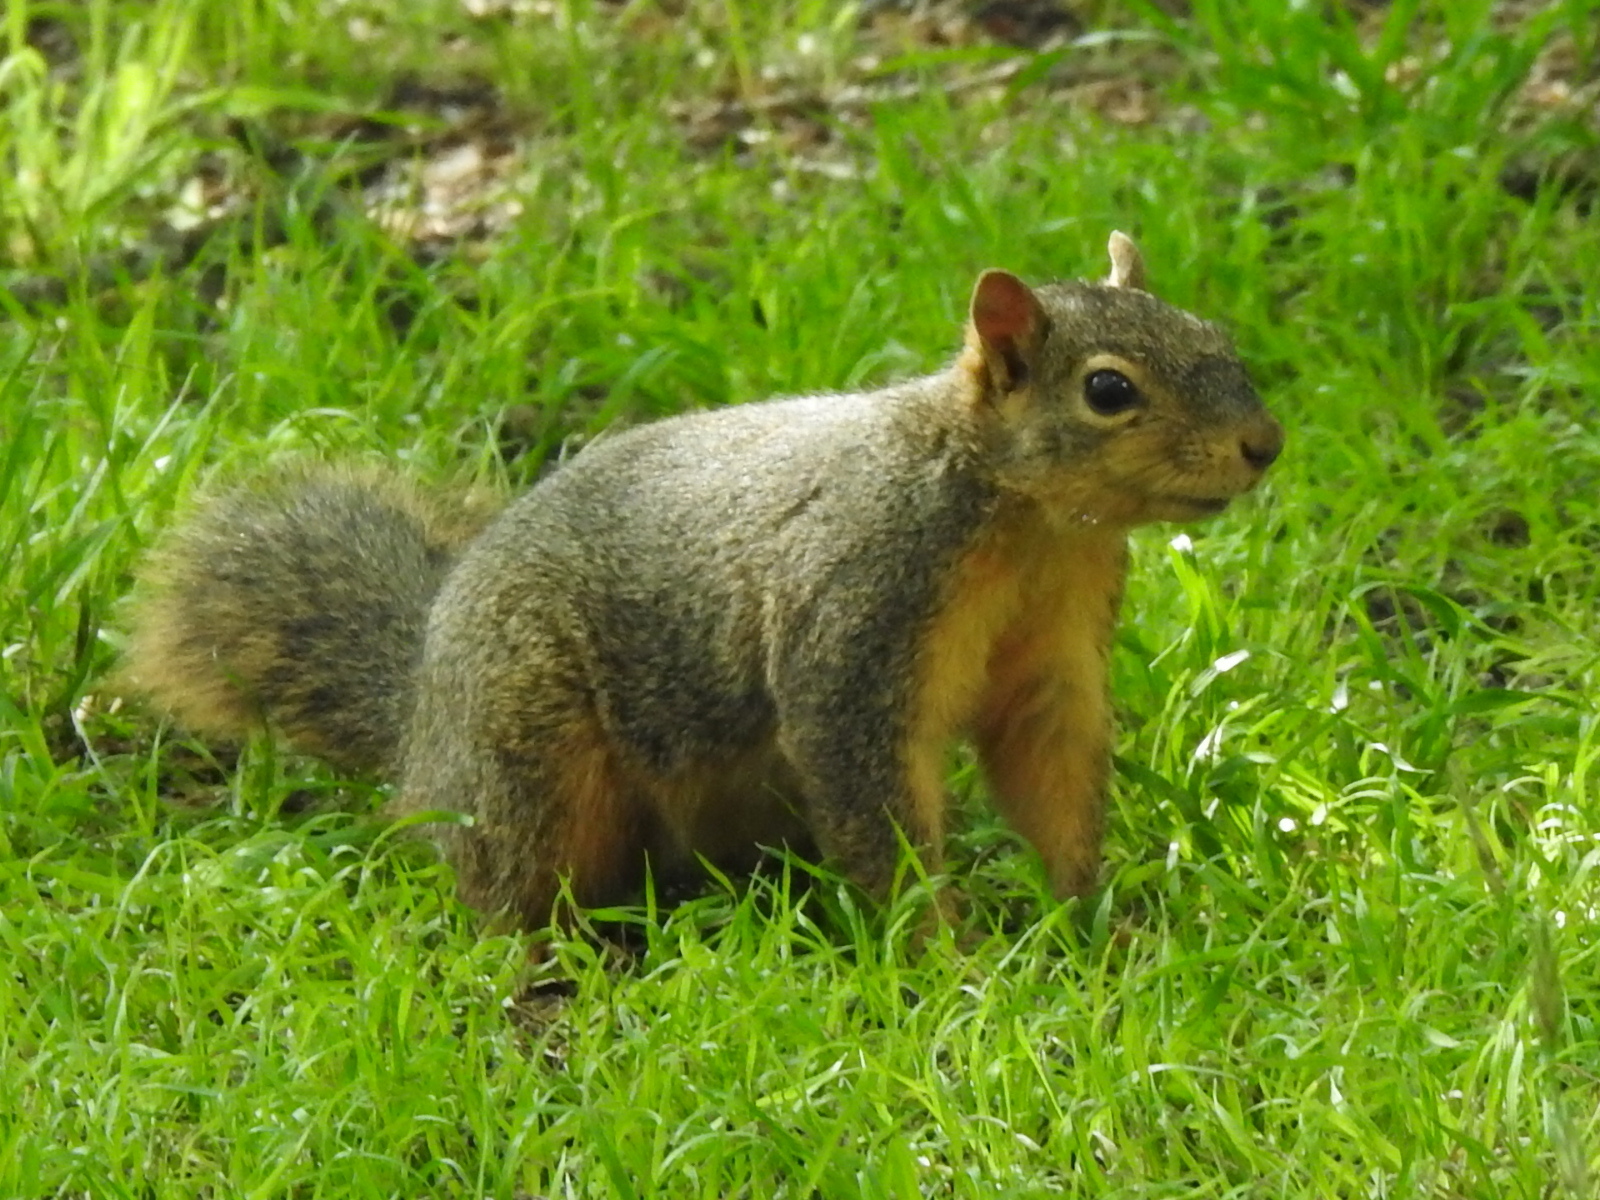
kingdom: Animalia
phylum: Chordata
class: Mammalia
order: Rodentia
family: Sciuridae
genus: Sciurus
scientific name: Sciurus niger
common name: Fox squirrel
